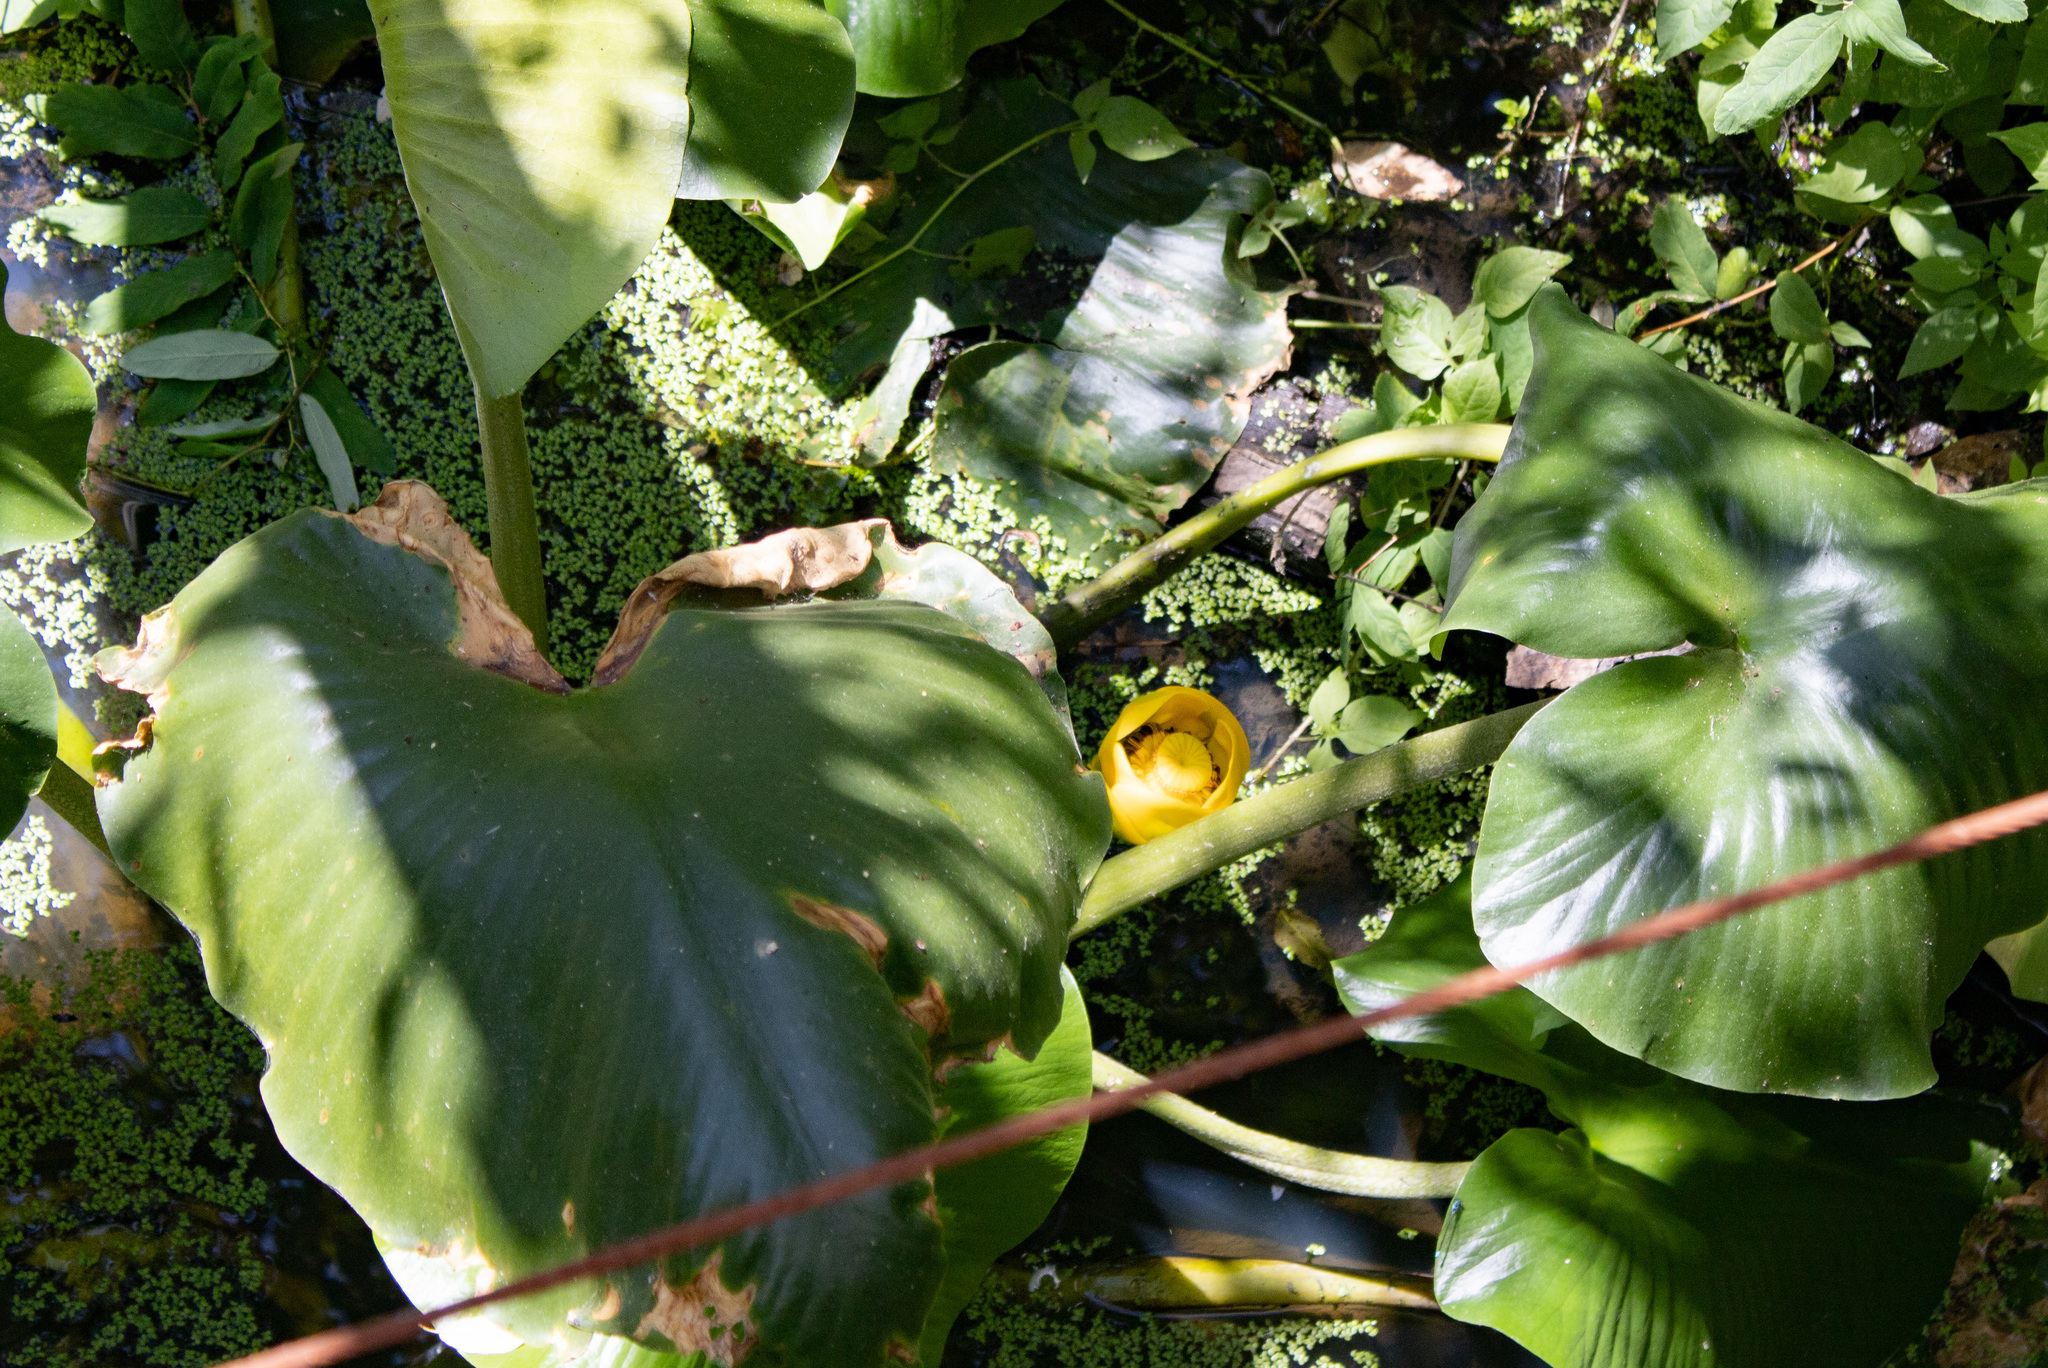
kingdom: Plantae
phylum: Tracheophyta
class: Magnoliopsida
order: Nymphaeales
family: Nymphaeaceae
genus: Nuphar
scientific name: Nuphar polysepala
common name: Rocky mountain cow-lily
